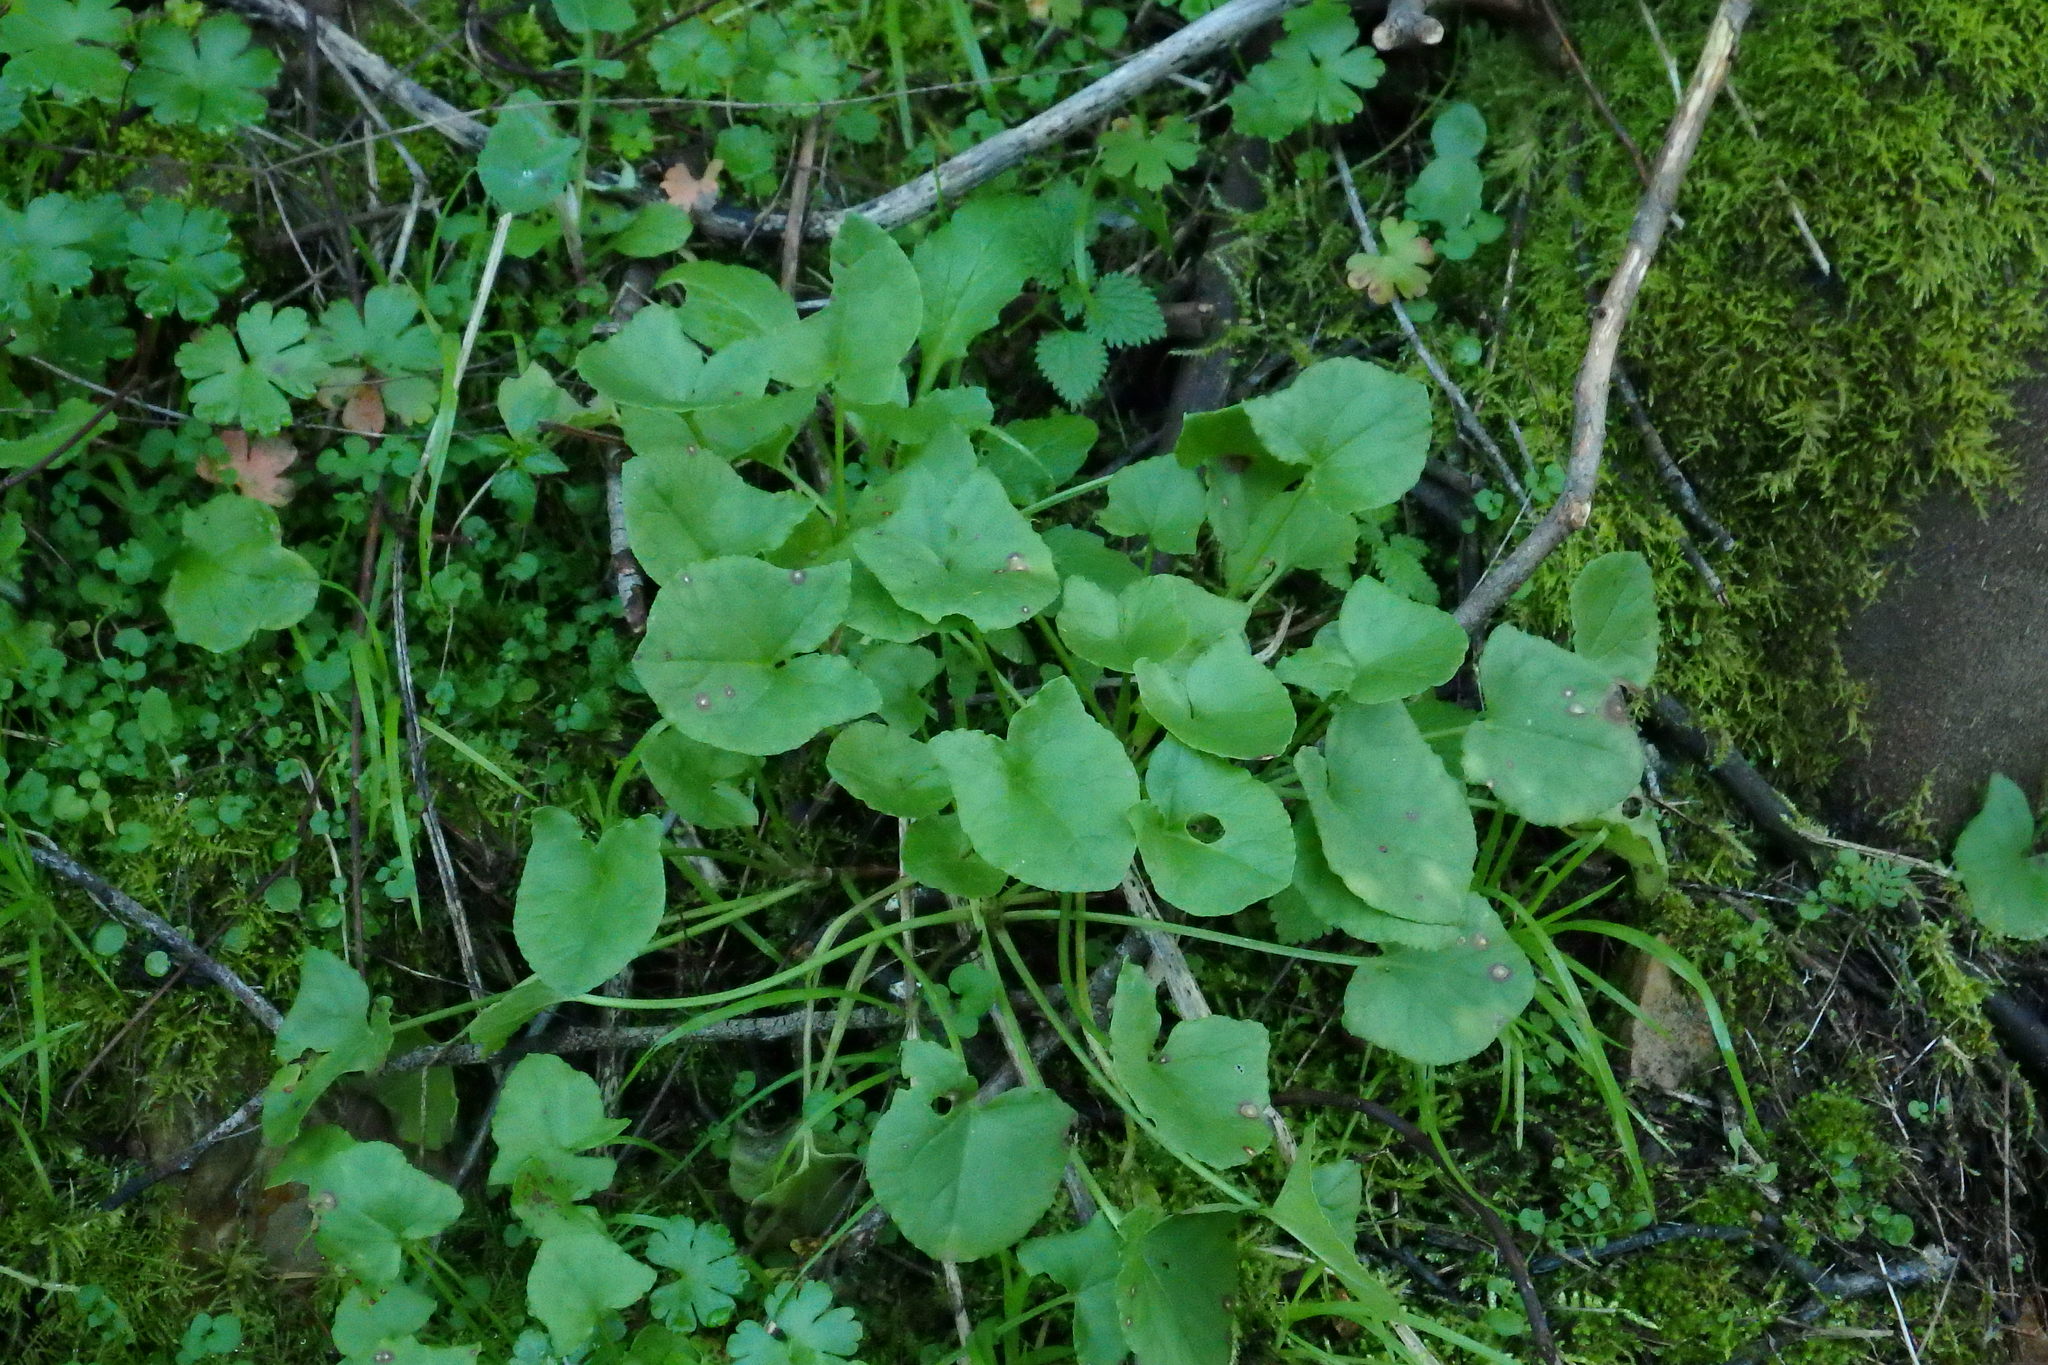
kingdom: Plantae
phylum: Tracheophyta
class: Magnoliopsida
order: Caryophyllales
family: Polygonaceae
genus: Rumex
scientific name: Rumex induratus
